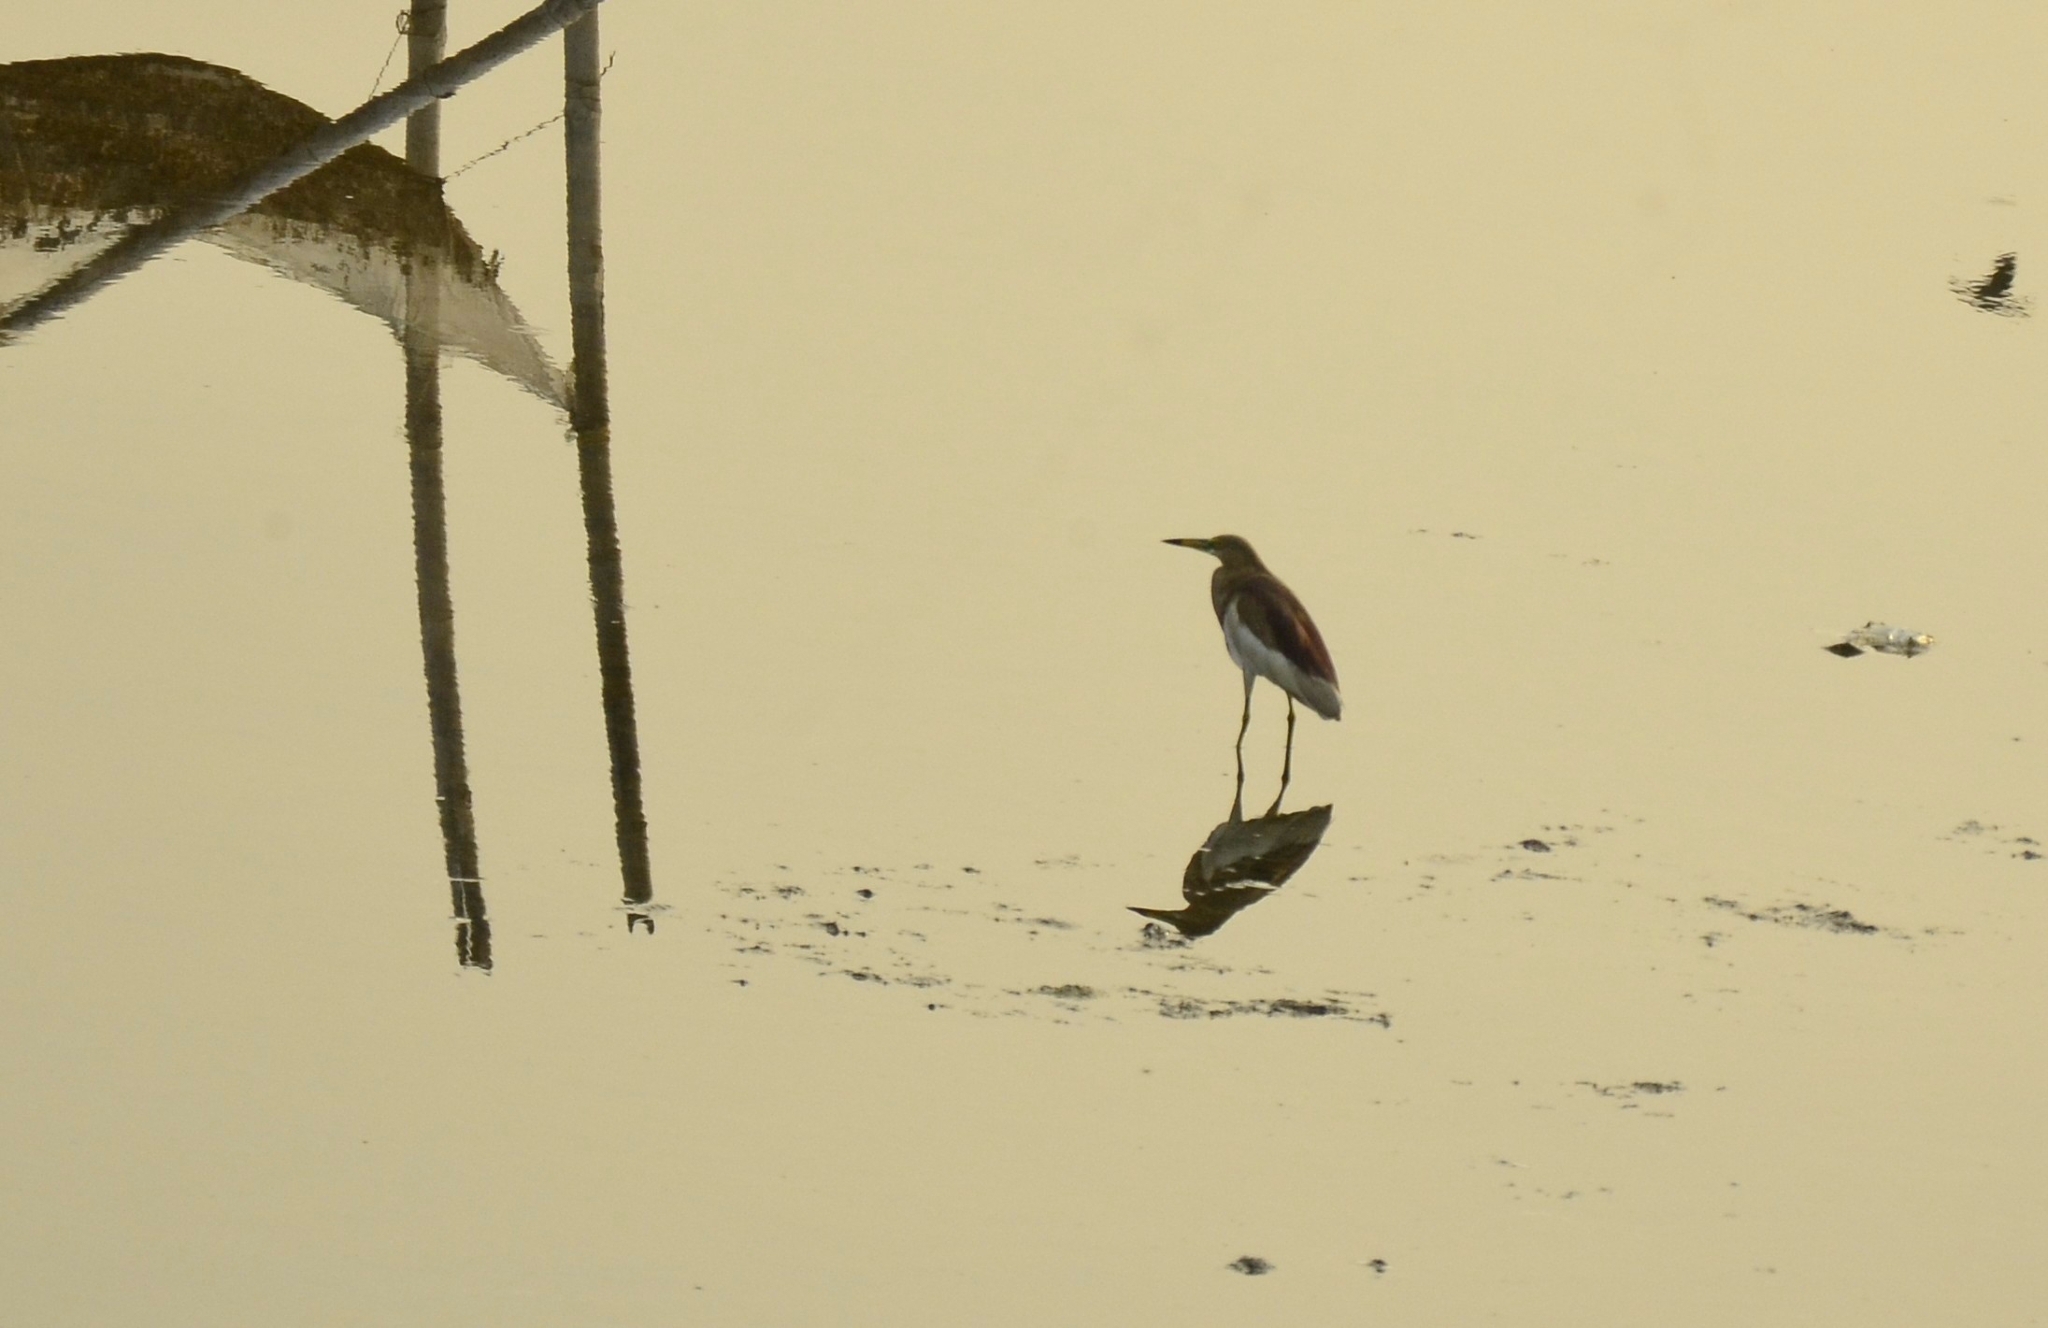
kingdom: Animalia
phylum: Chordata
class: Aves
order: Pelecaniformes
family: Ardeidae
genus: Ardeola
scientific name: Ardeola grayii
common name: Indian pond heron
